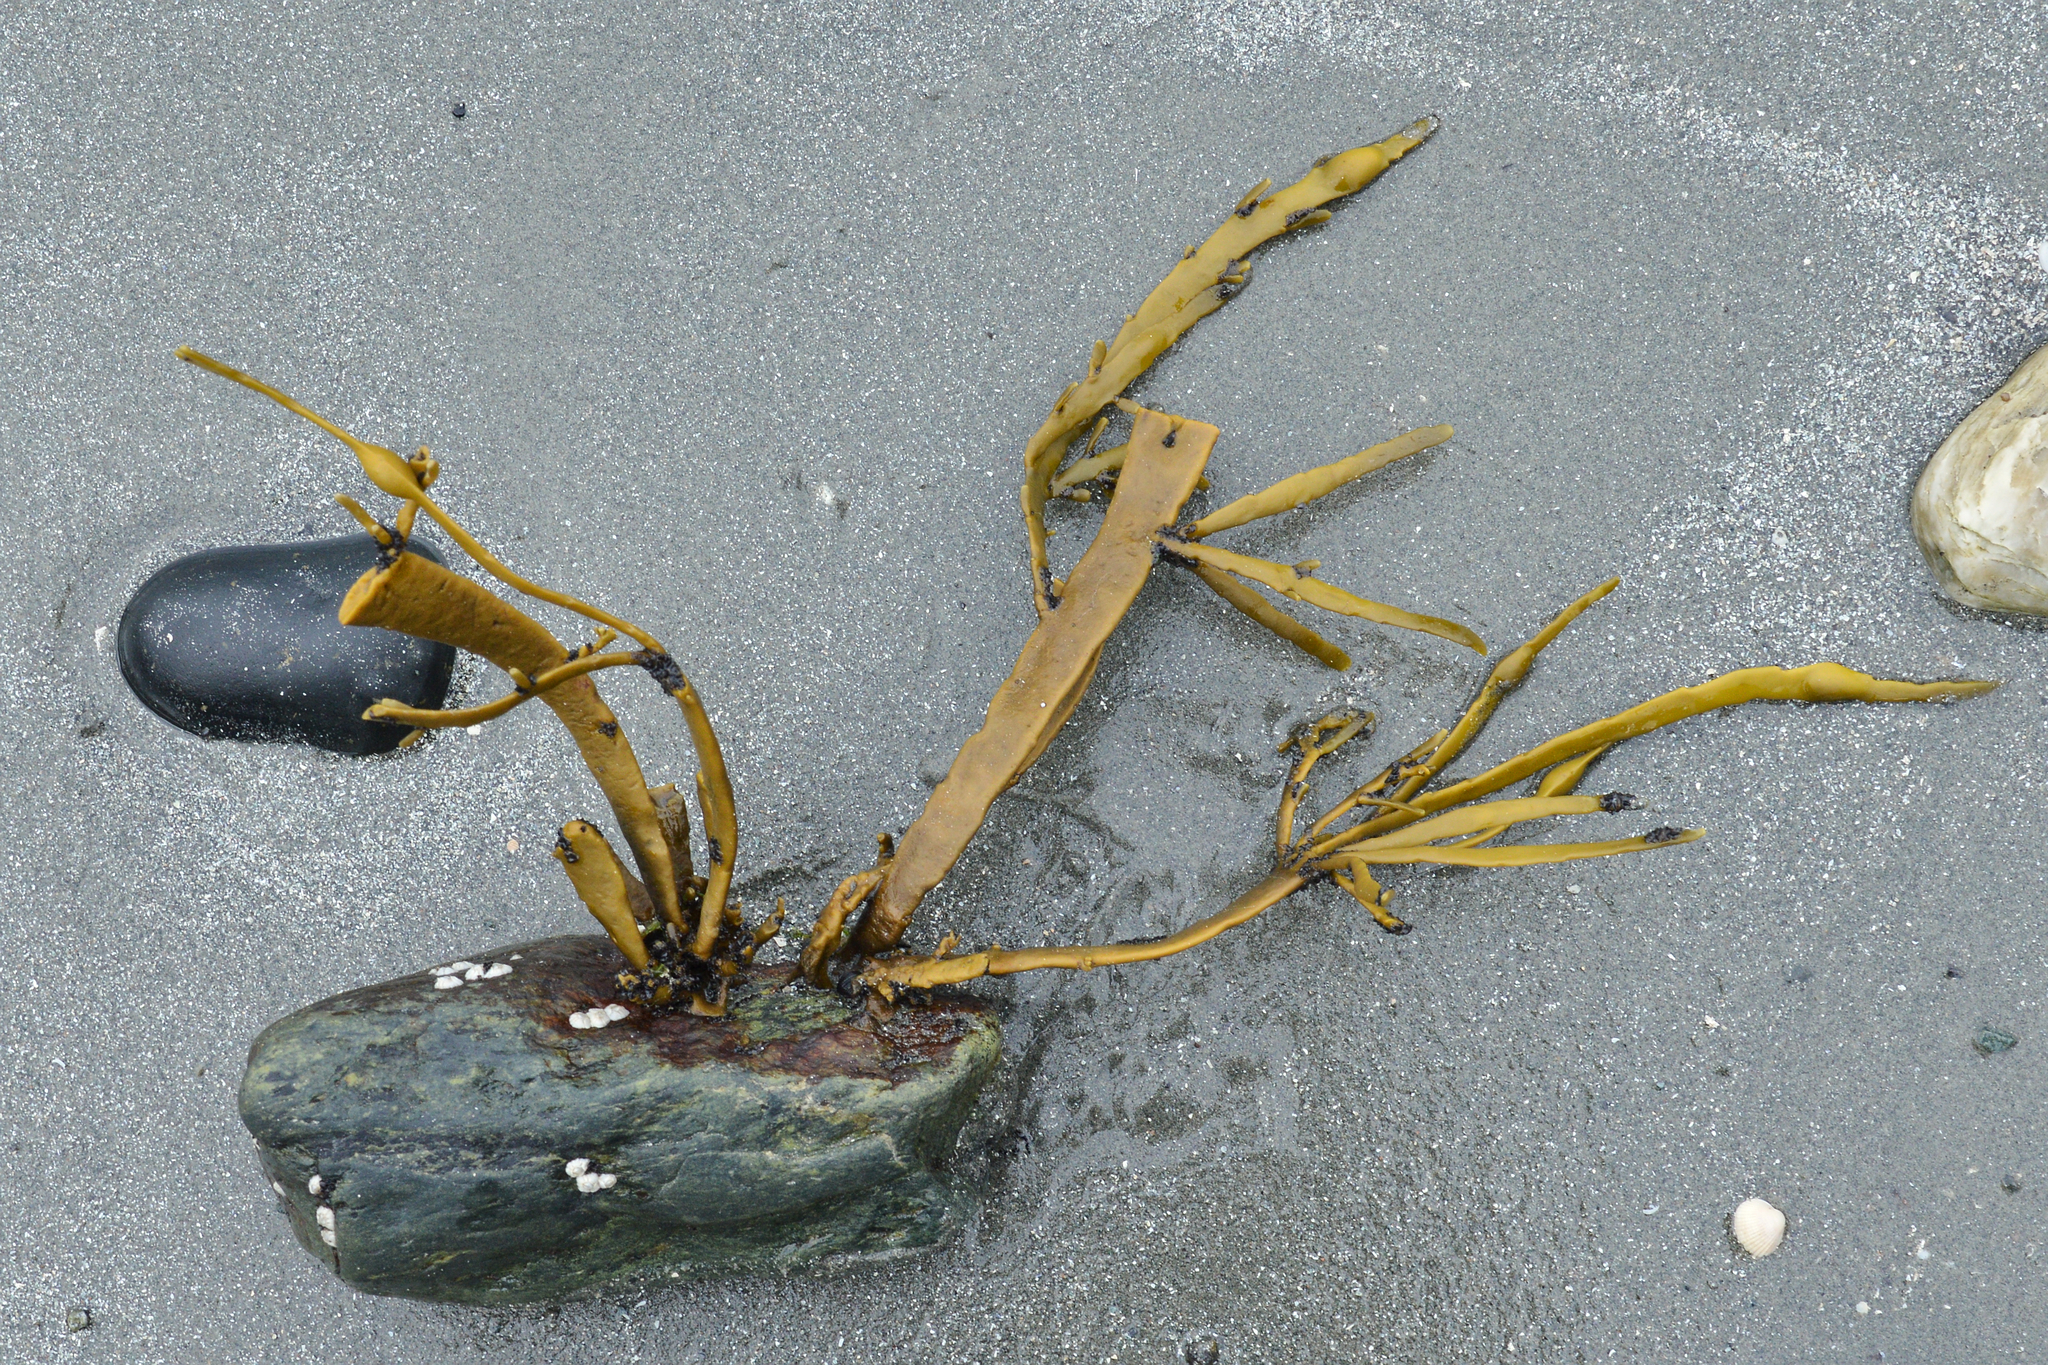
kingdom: Chromista
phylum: Ochrophyta
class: Phaeophyceae
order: Fucales
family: Fucaceae
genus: Ascophyllum
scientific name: Ascophyllum nodosum
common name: Knotted wrack
